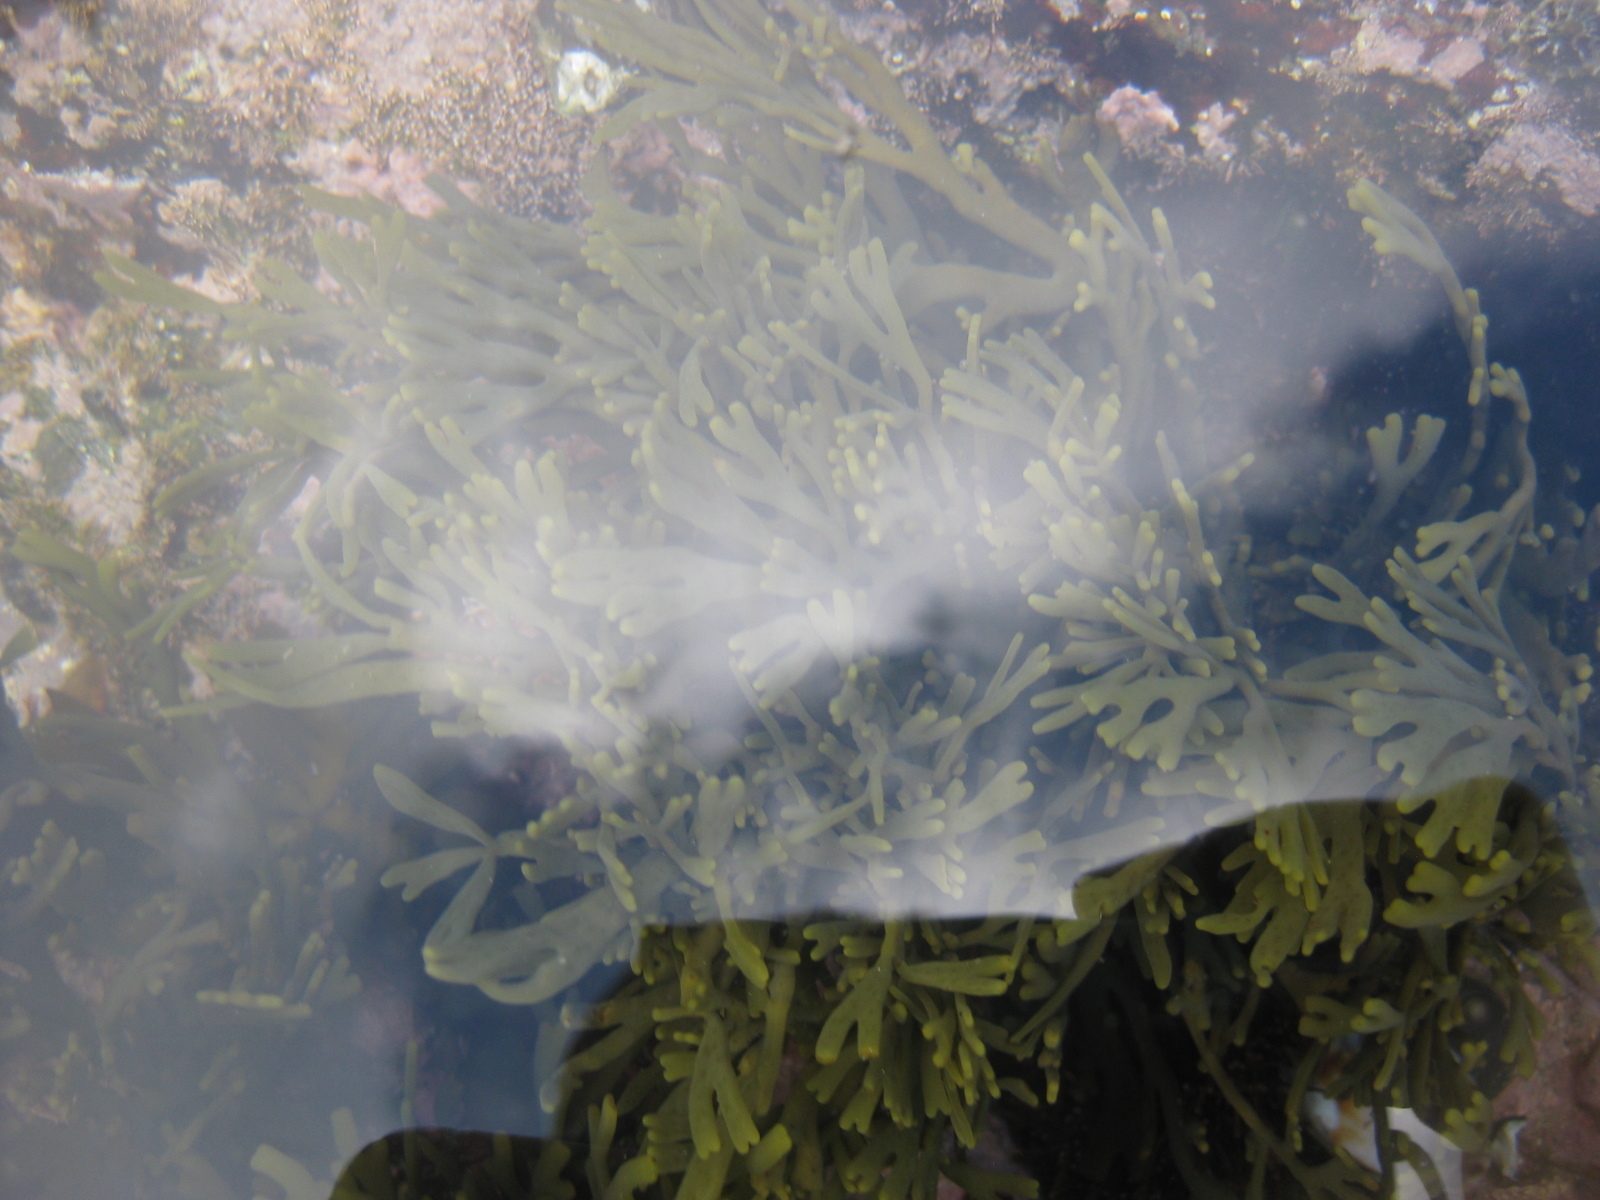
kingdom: Chromista
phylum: Ochrophyta
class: Phaeophyceae
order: Fucales
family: Xiphophoraceae
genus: Xiphophora
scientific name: Xiphophora chondrophylla
